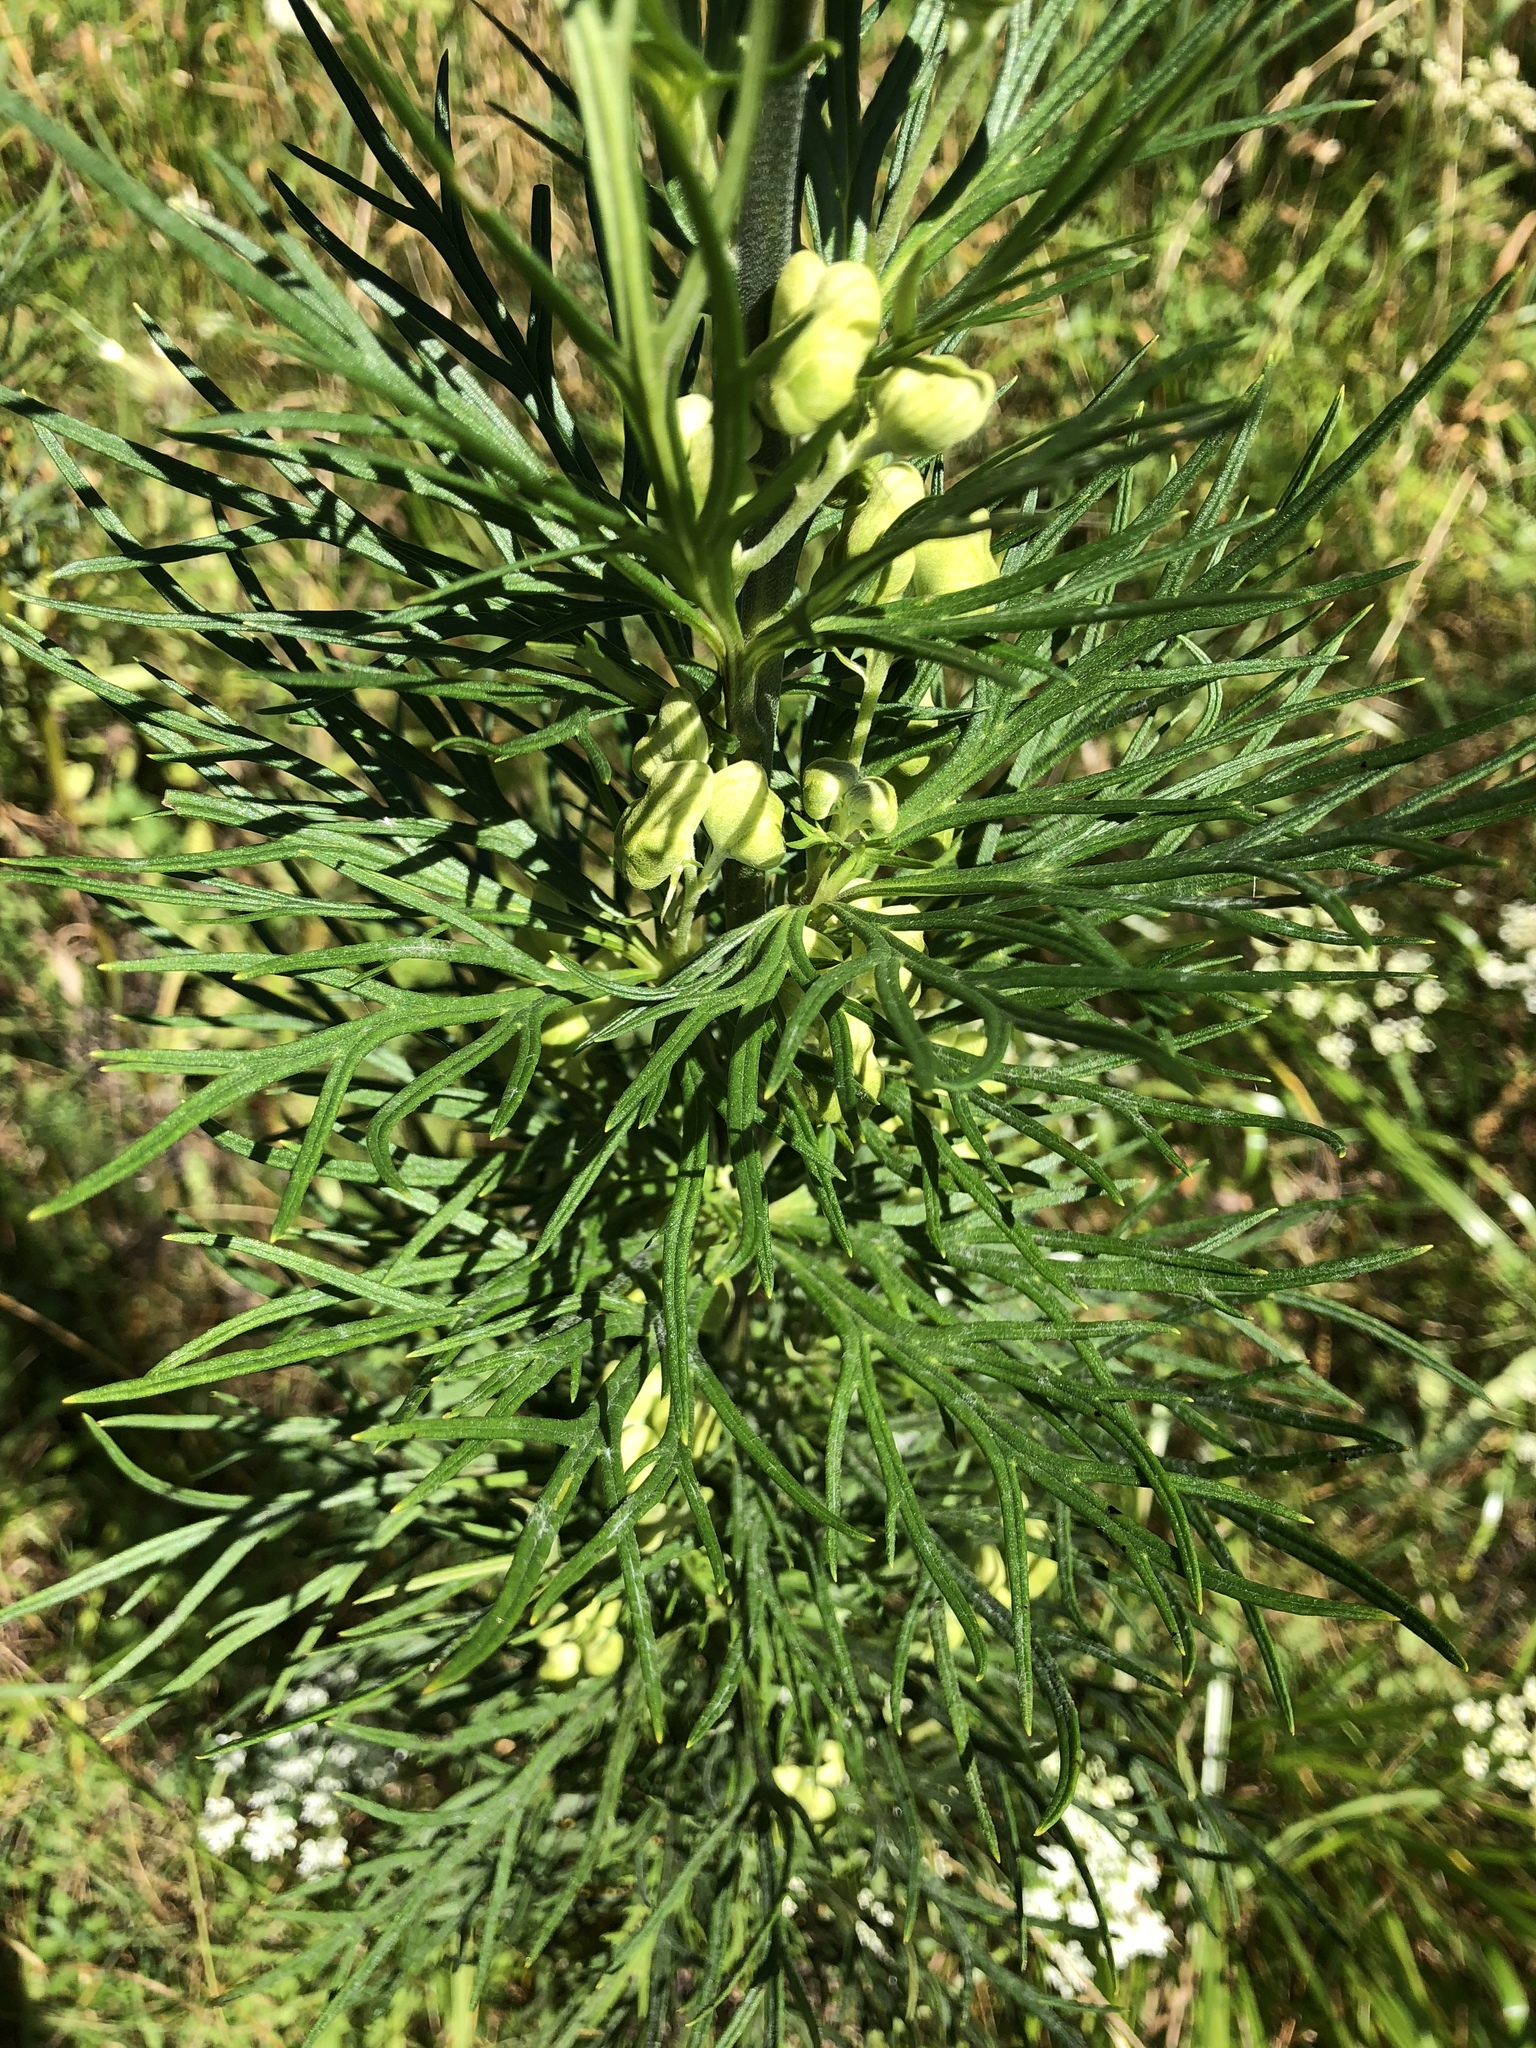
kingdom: Plantae
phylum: Tracheophyta
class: Magnoliopsida
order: Ranunculales
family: Ranunculaceae
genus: Aconitum
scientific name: Aconitum anthora
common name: Yellow monkshood
